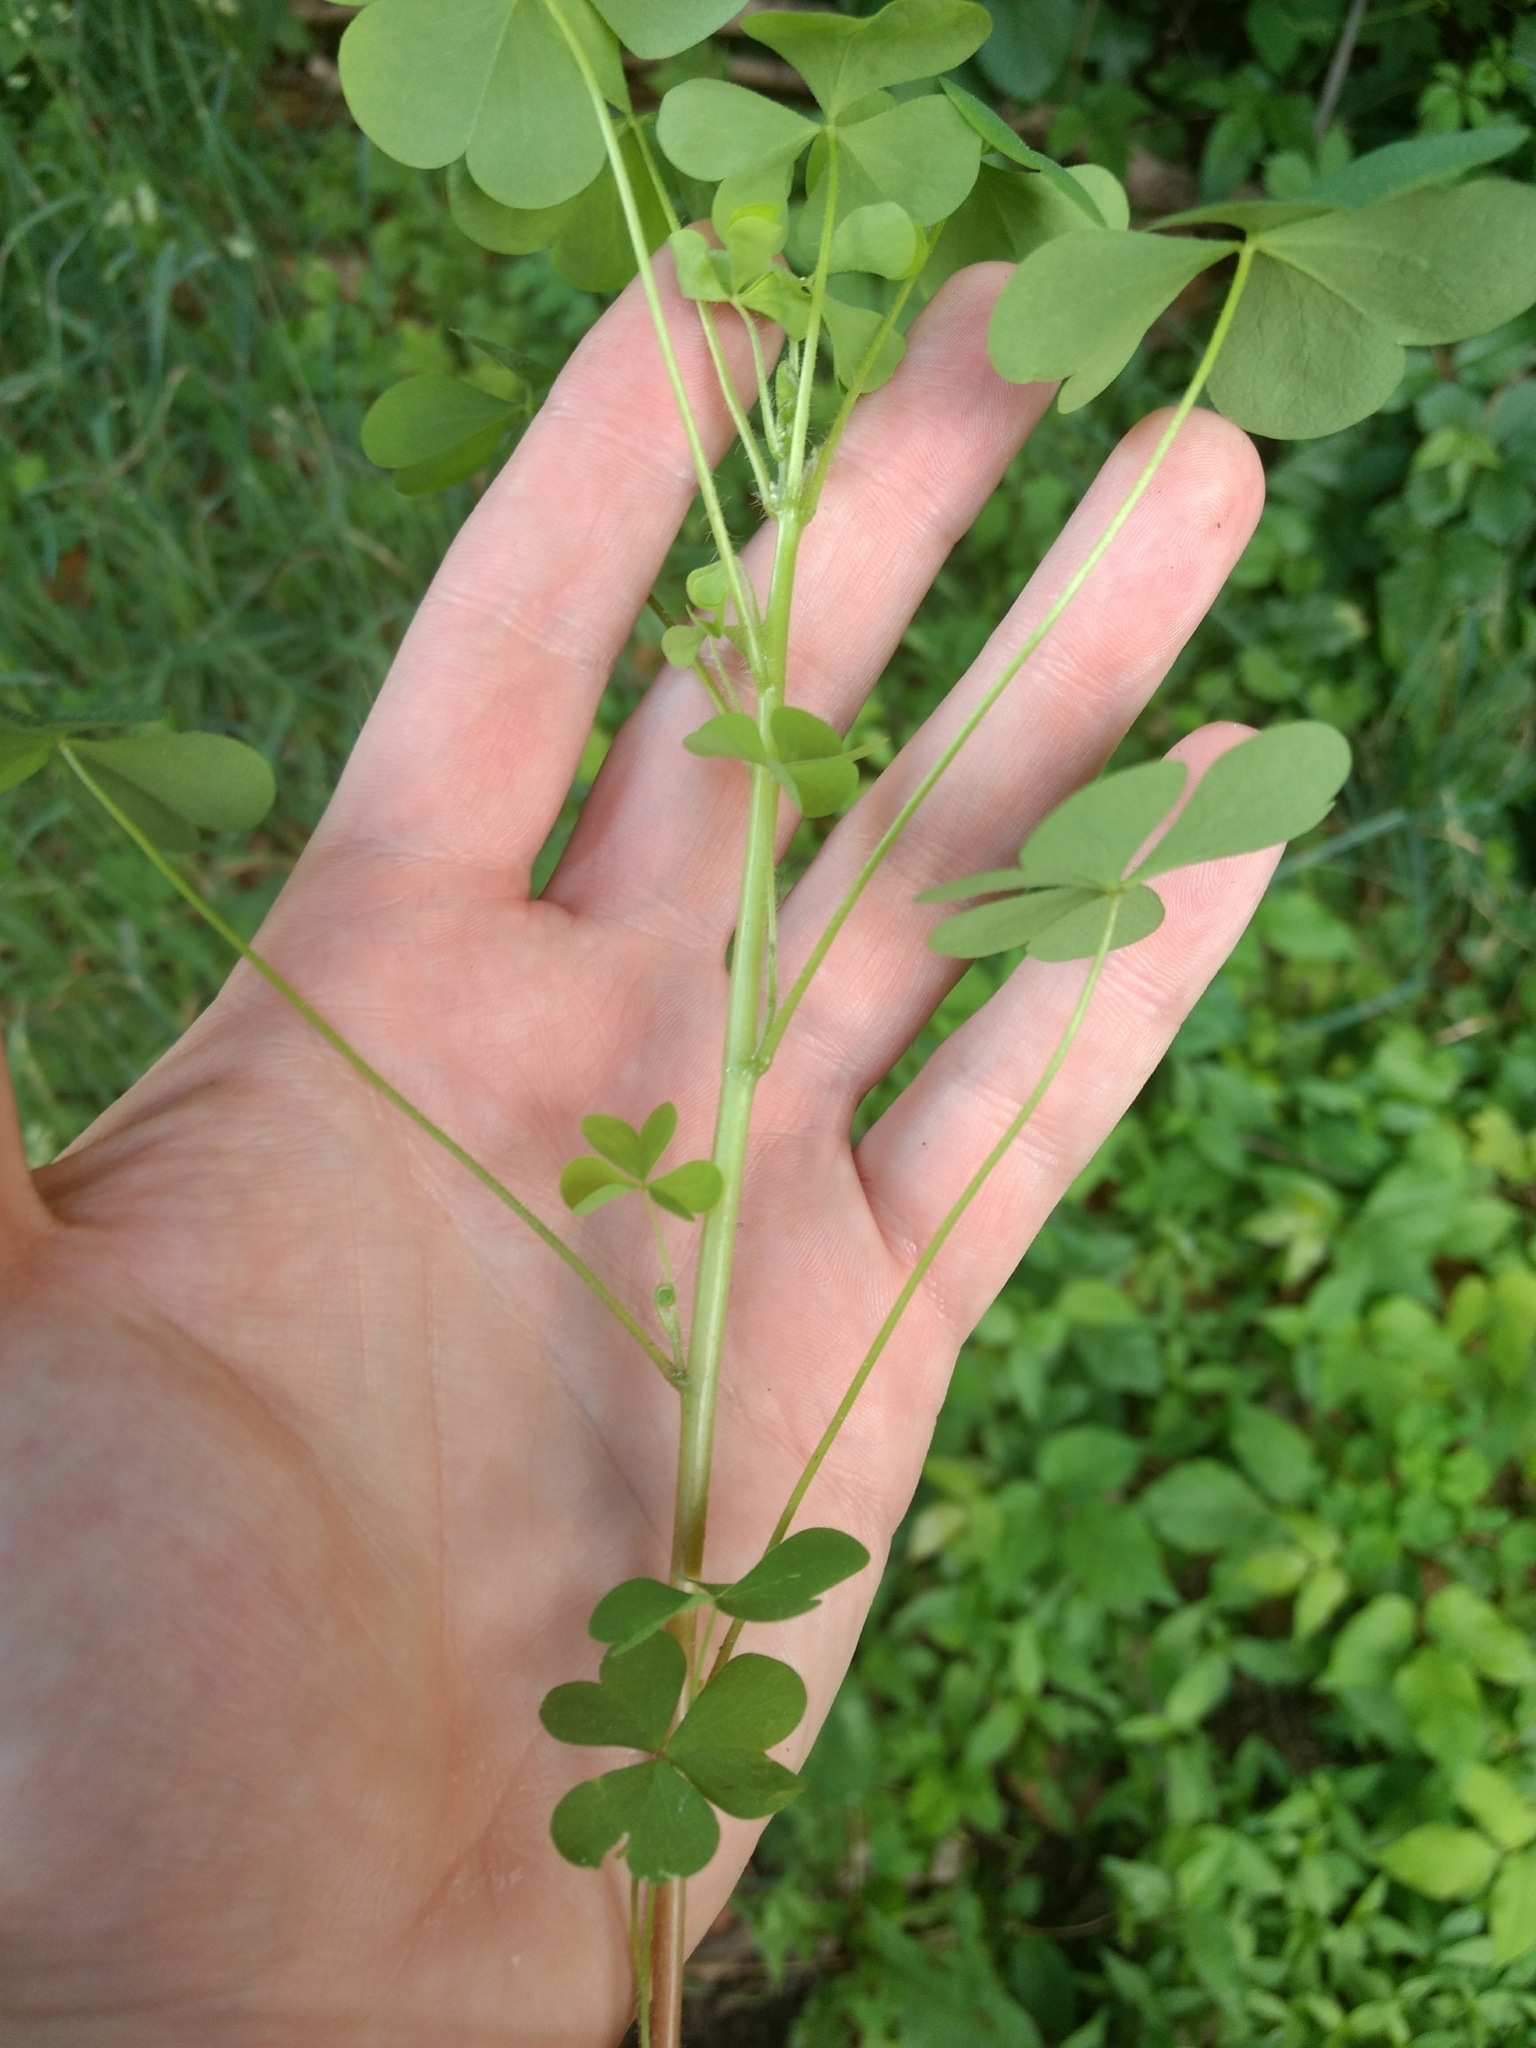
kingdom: Plantae
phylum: Tracheophyta
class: Magnoliopsida
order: Oxalidales
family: Oxalidaceae
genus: Oxalis
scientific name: Oxalis stricta
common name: Upright yellow-sorrel
